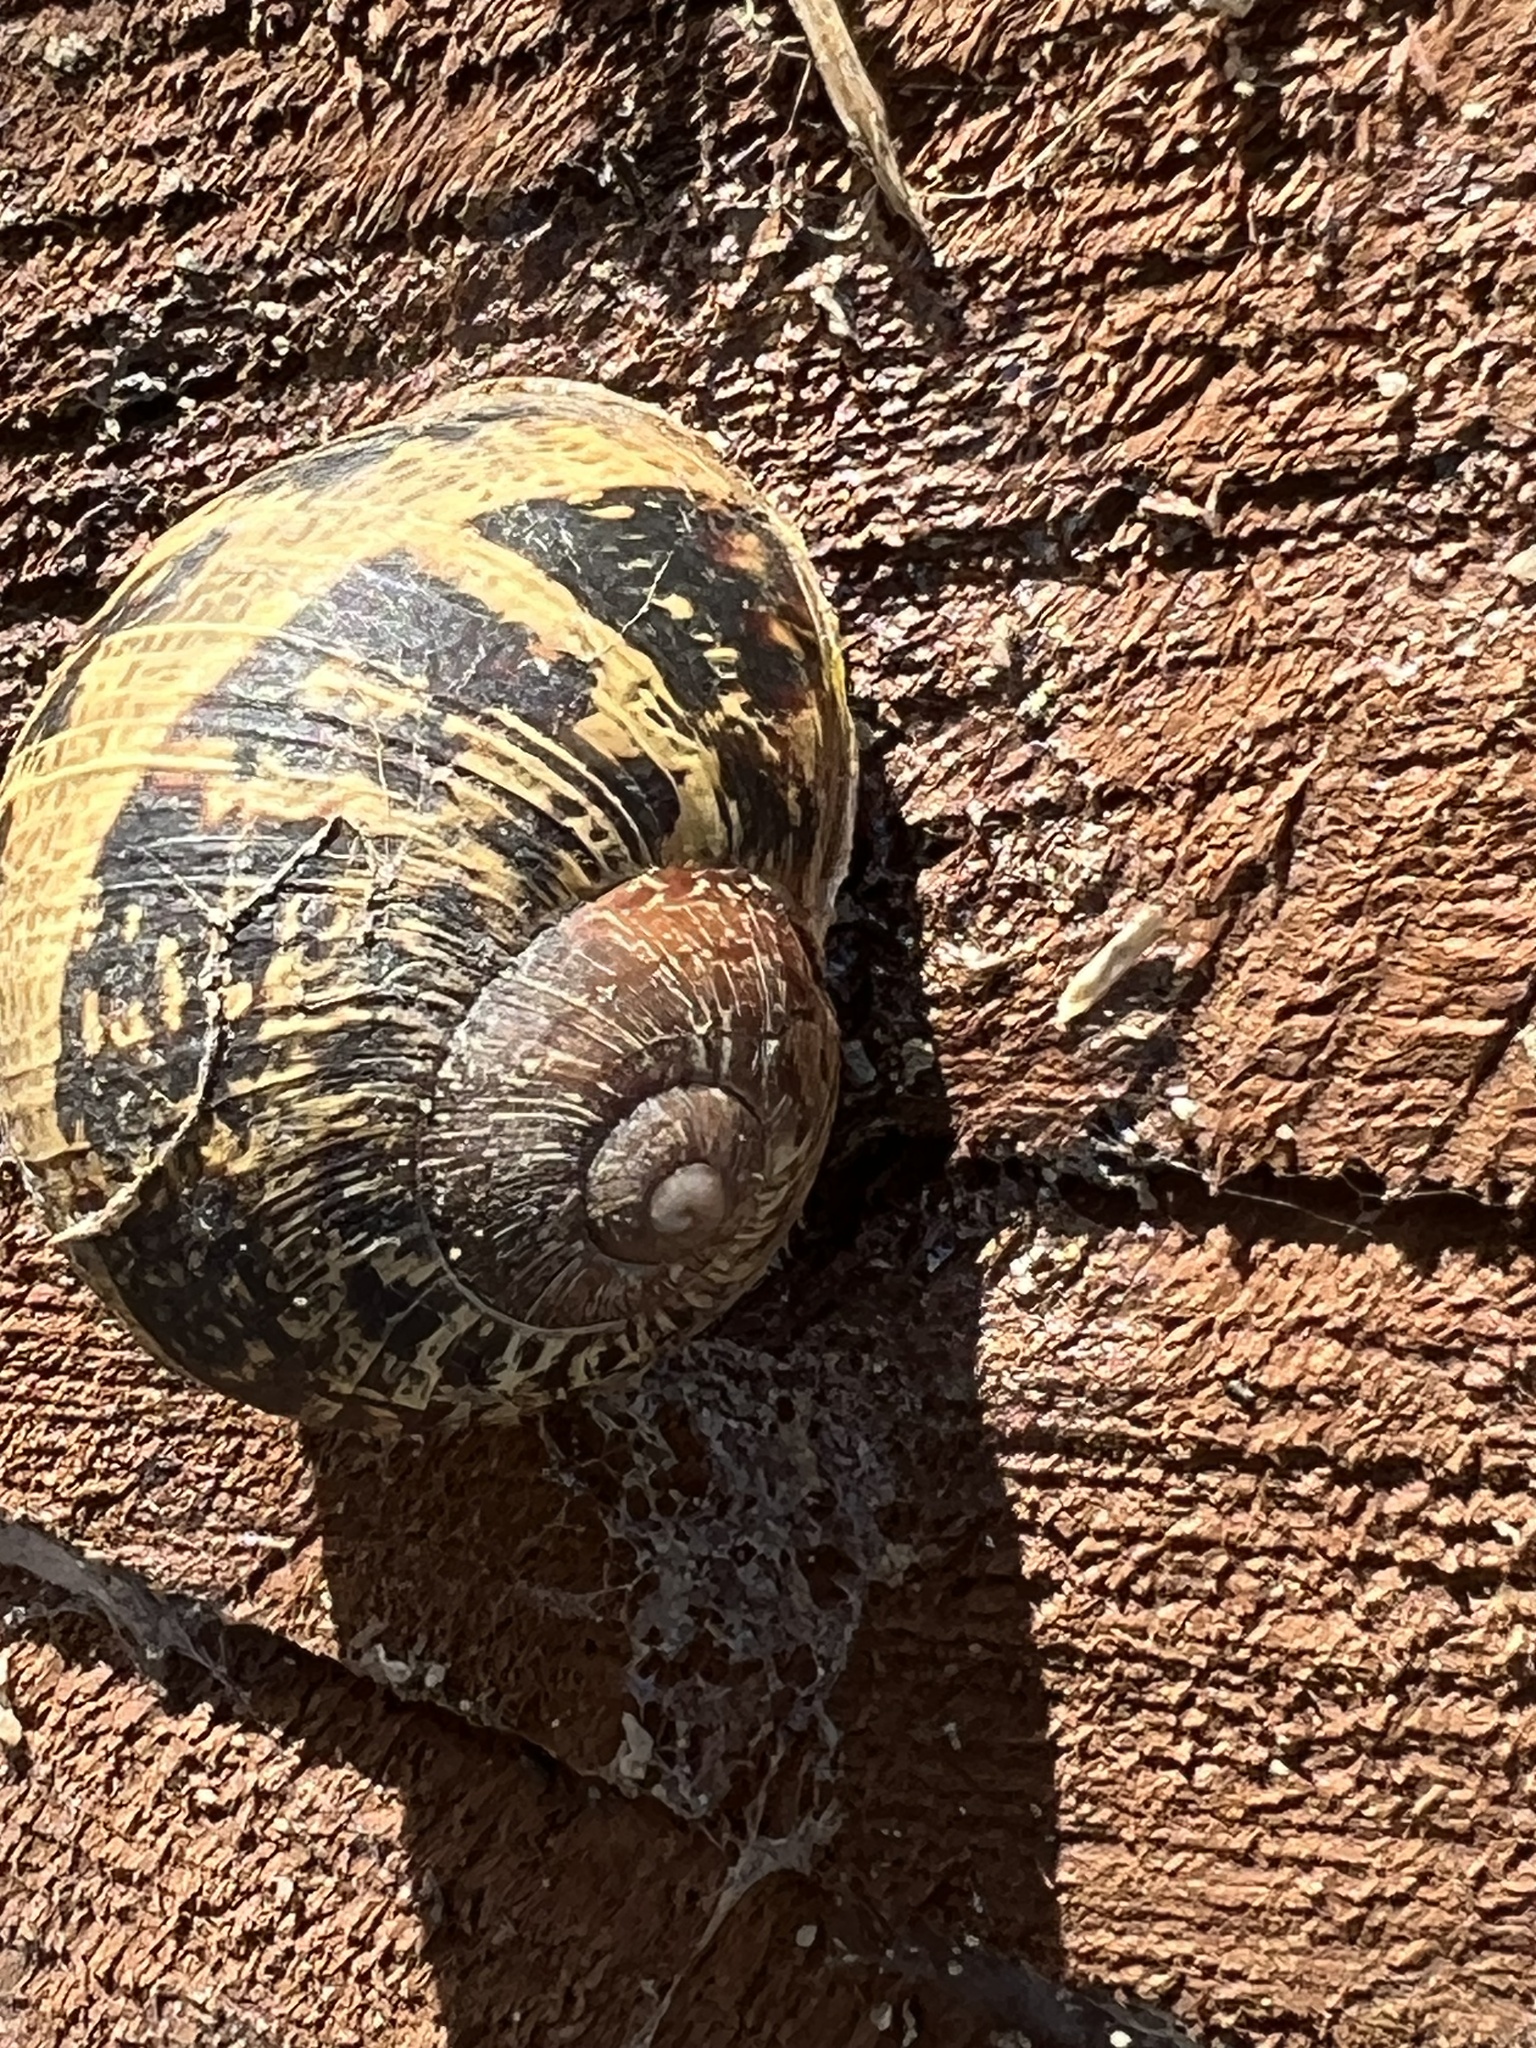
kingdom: Animalia
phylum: Mollusca
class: Gastropoda
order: Stylommatophora
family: Helicidae
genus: Cornu
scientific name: Cornu aspersum
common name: Brown garden snail
